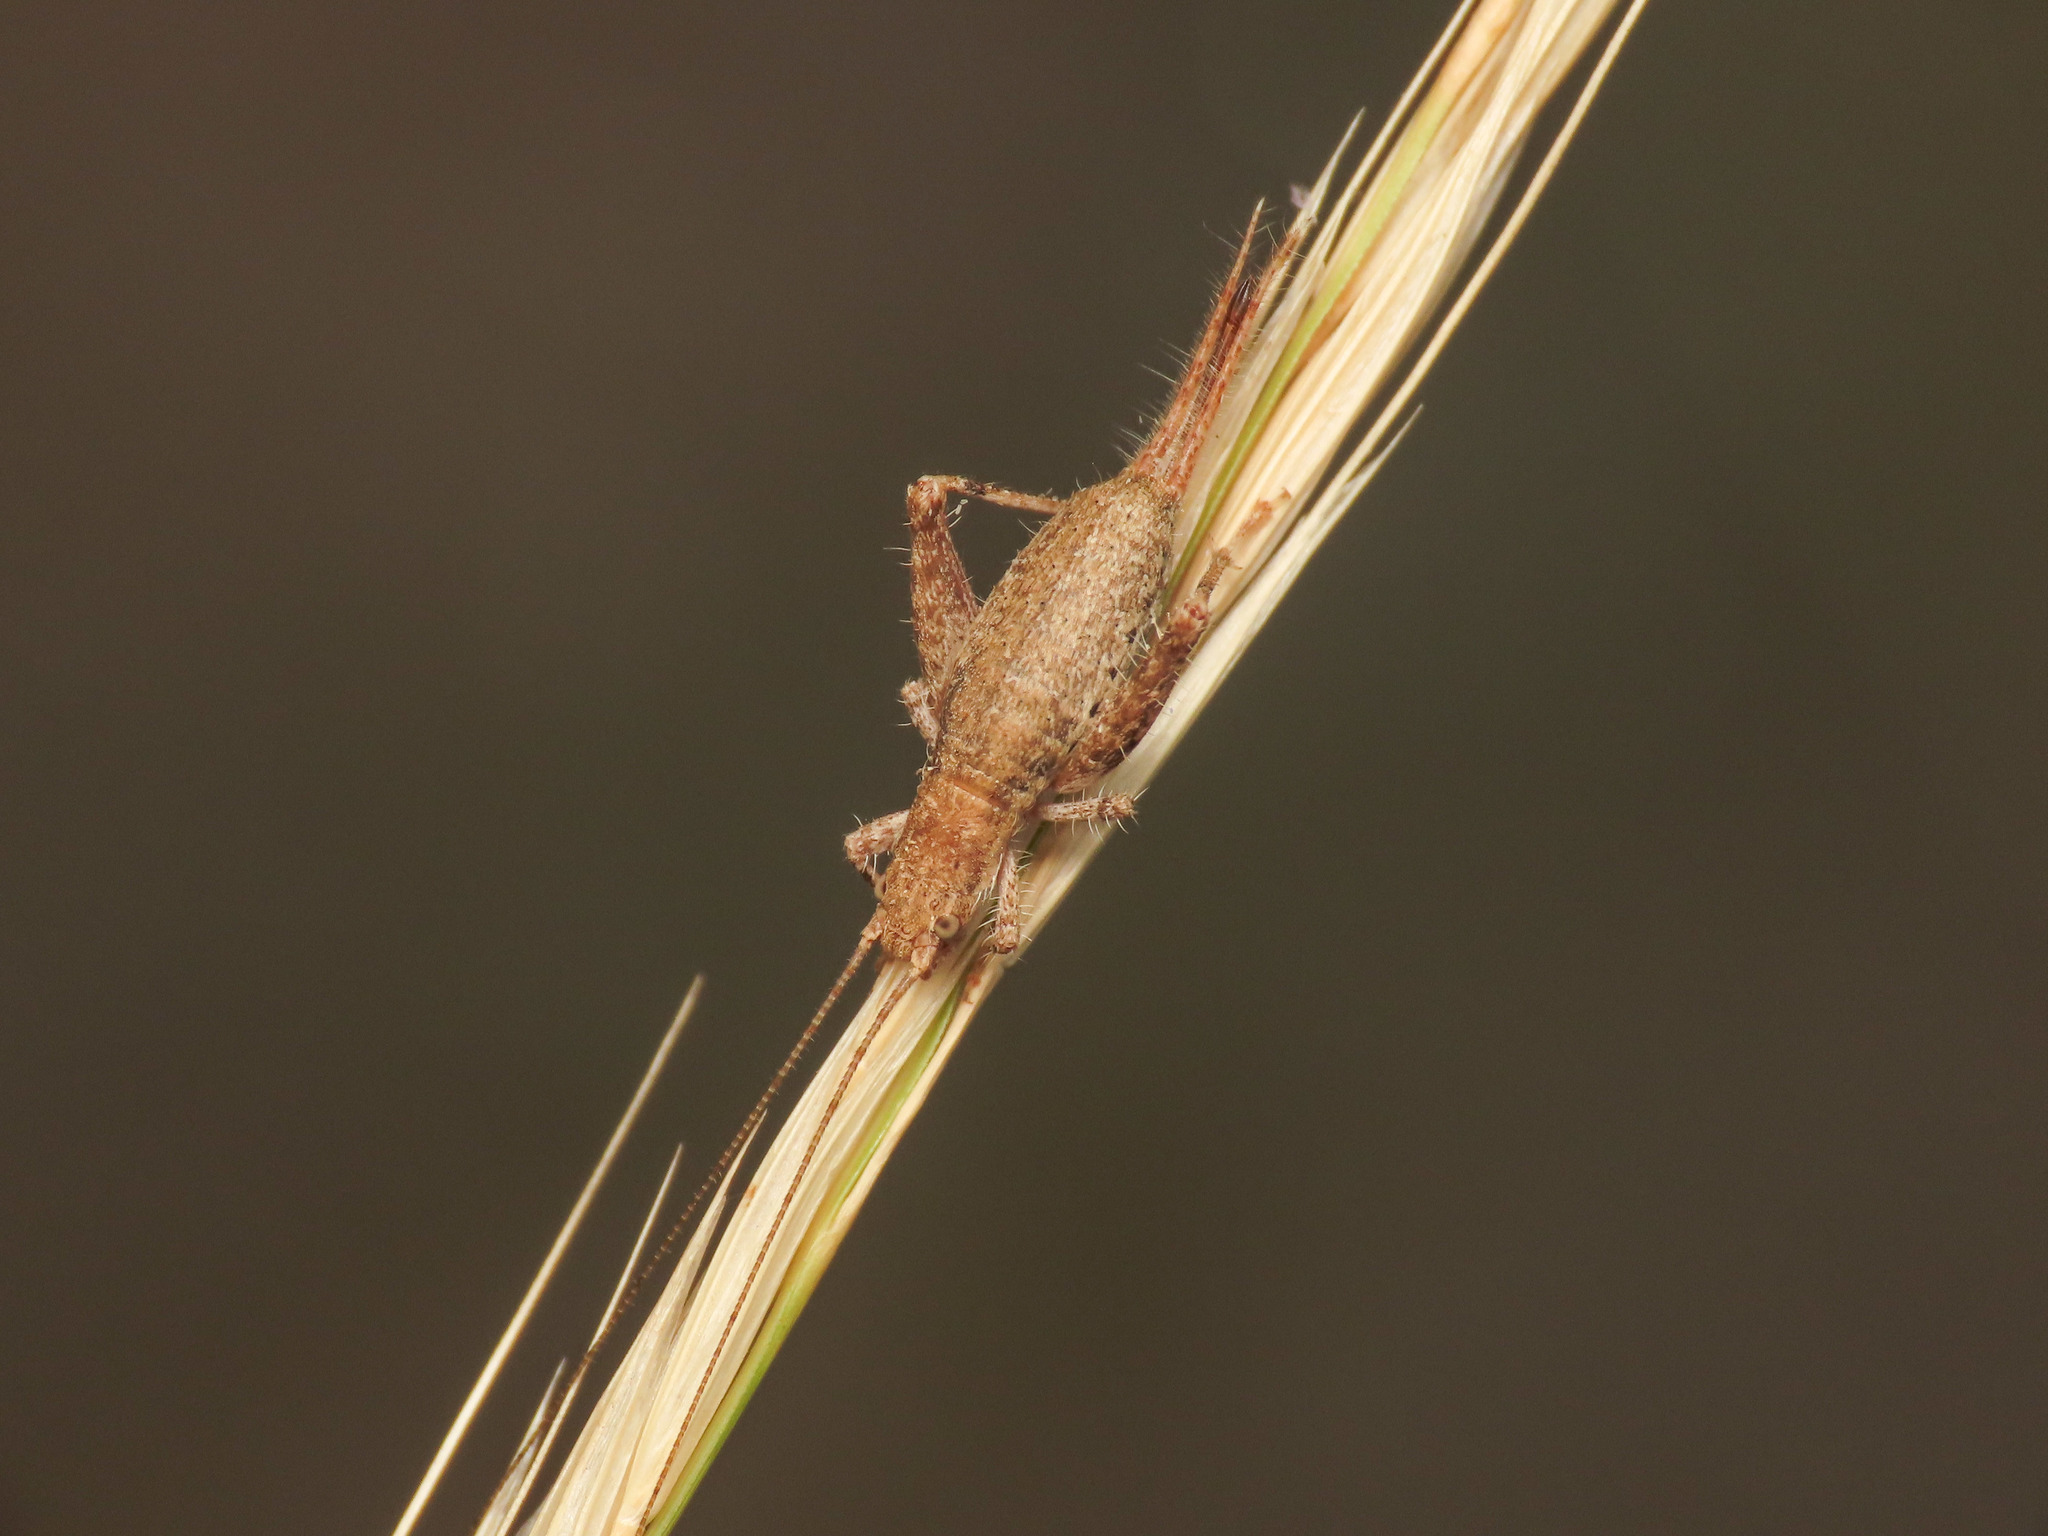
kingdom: Animalia
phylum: Arthropoda
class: Insecta
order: Orthoptera
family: Mogoplistidae
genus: Arachnocephalus
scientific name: Arachnocephalus vestitus
